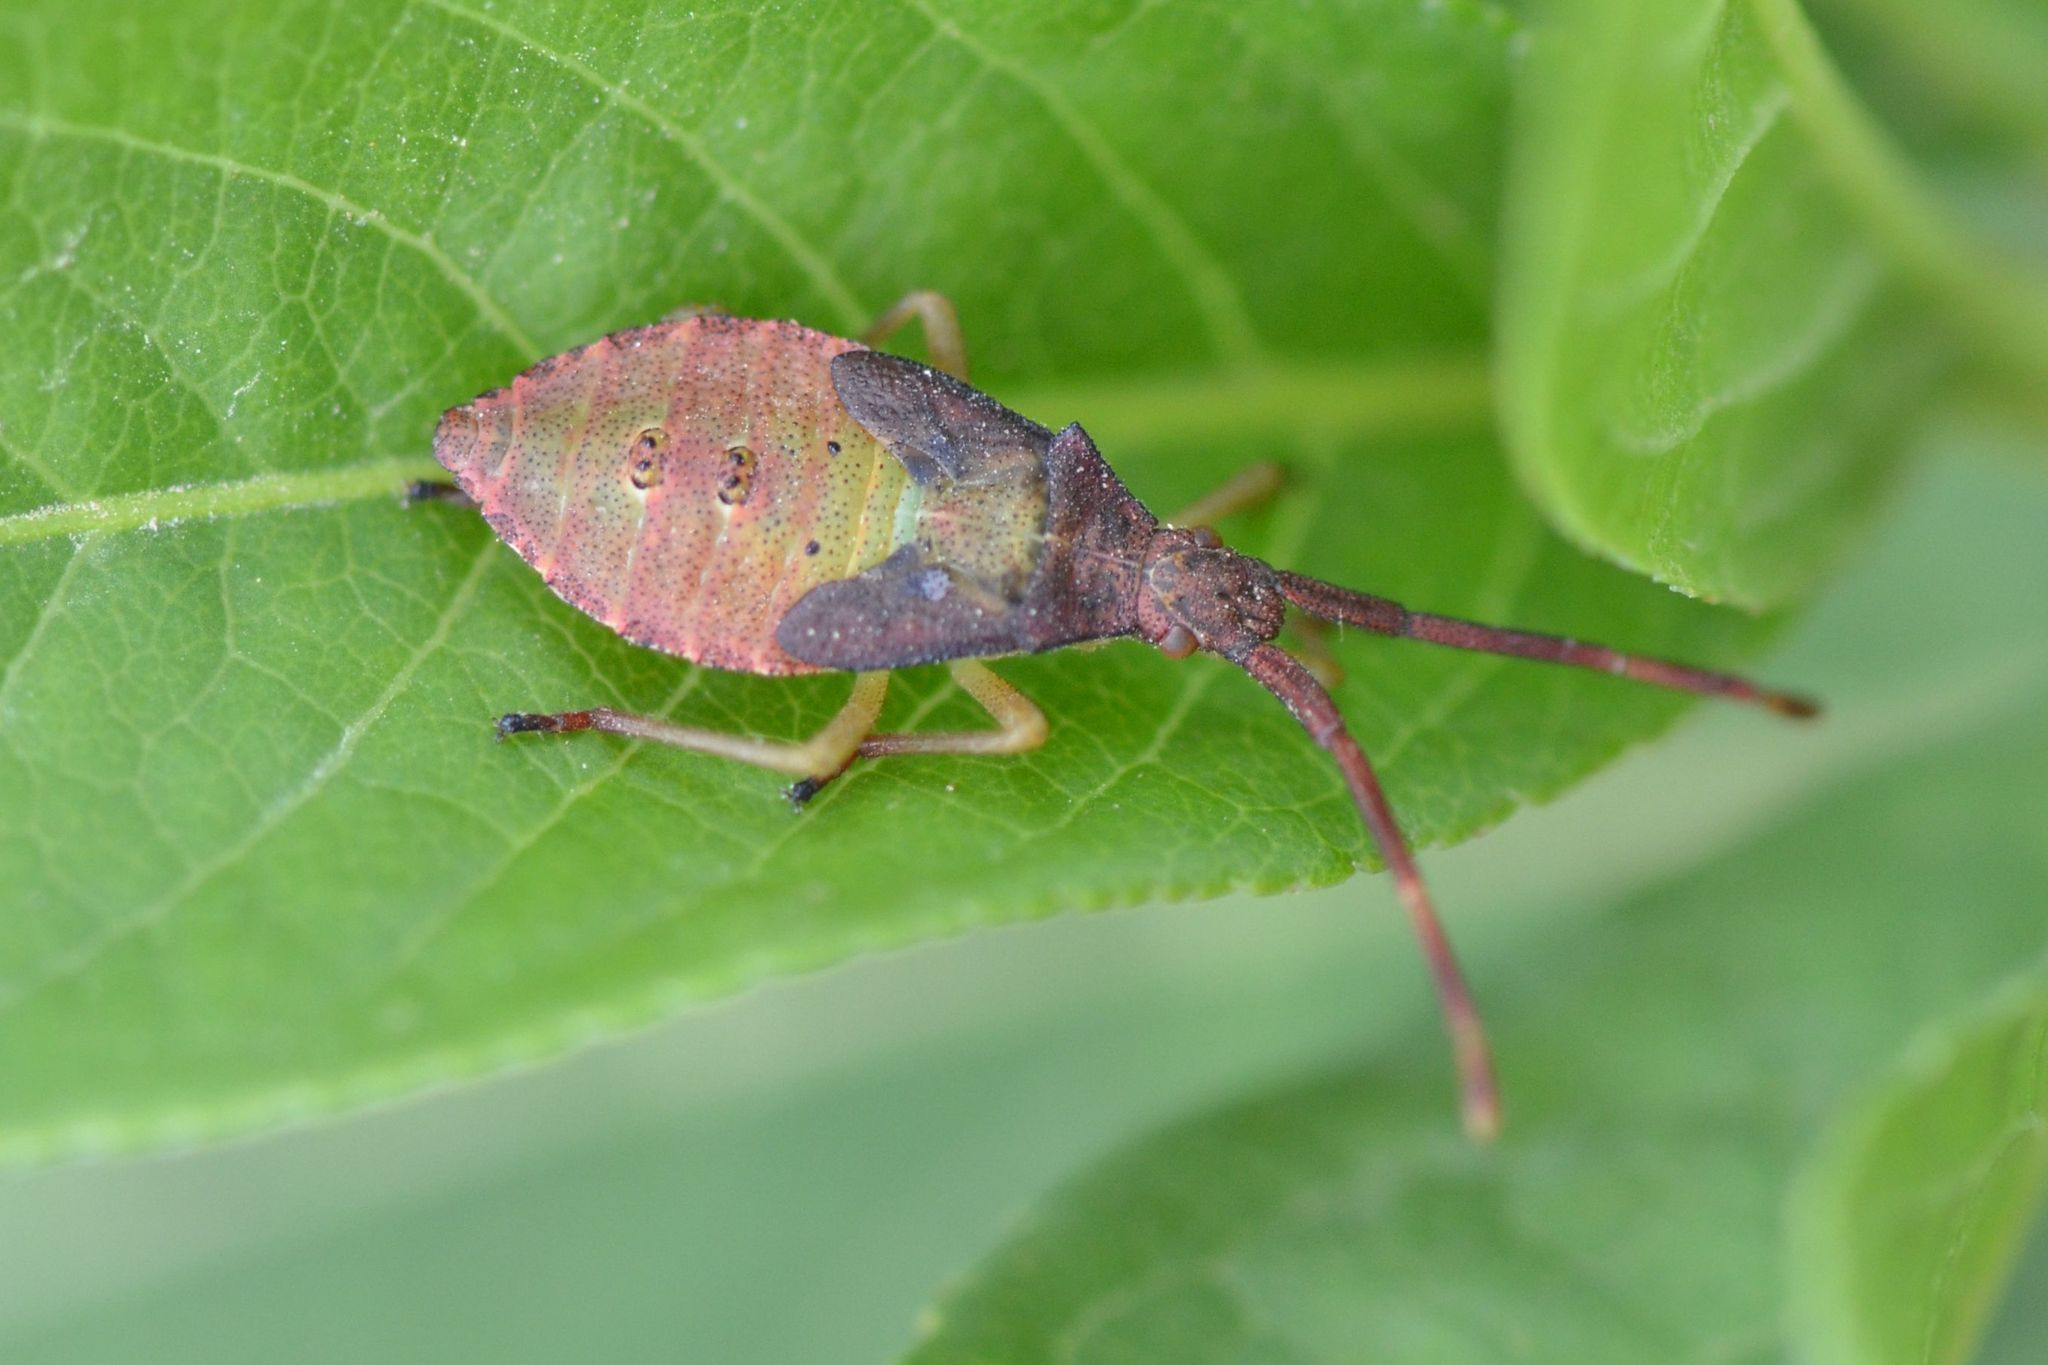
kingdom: Animalia
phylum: Arthropoda
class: Insecta
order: Hemiptera
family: Coreidae
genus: Gonocerus
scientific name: Gonocerus acuteangulatus
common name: Box bug
